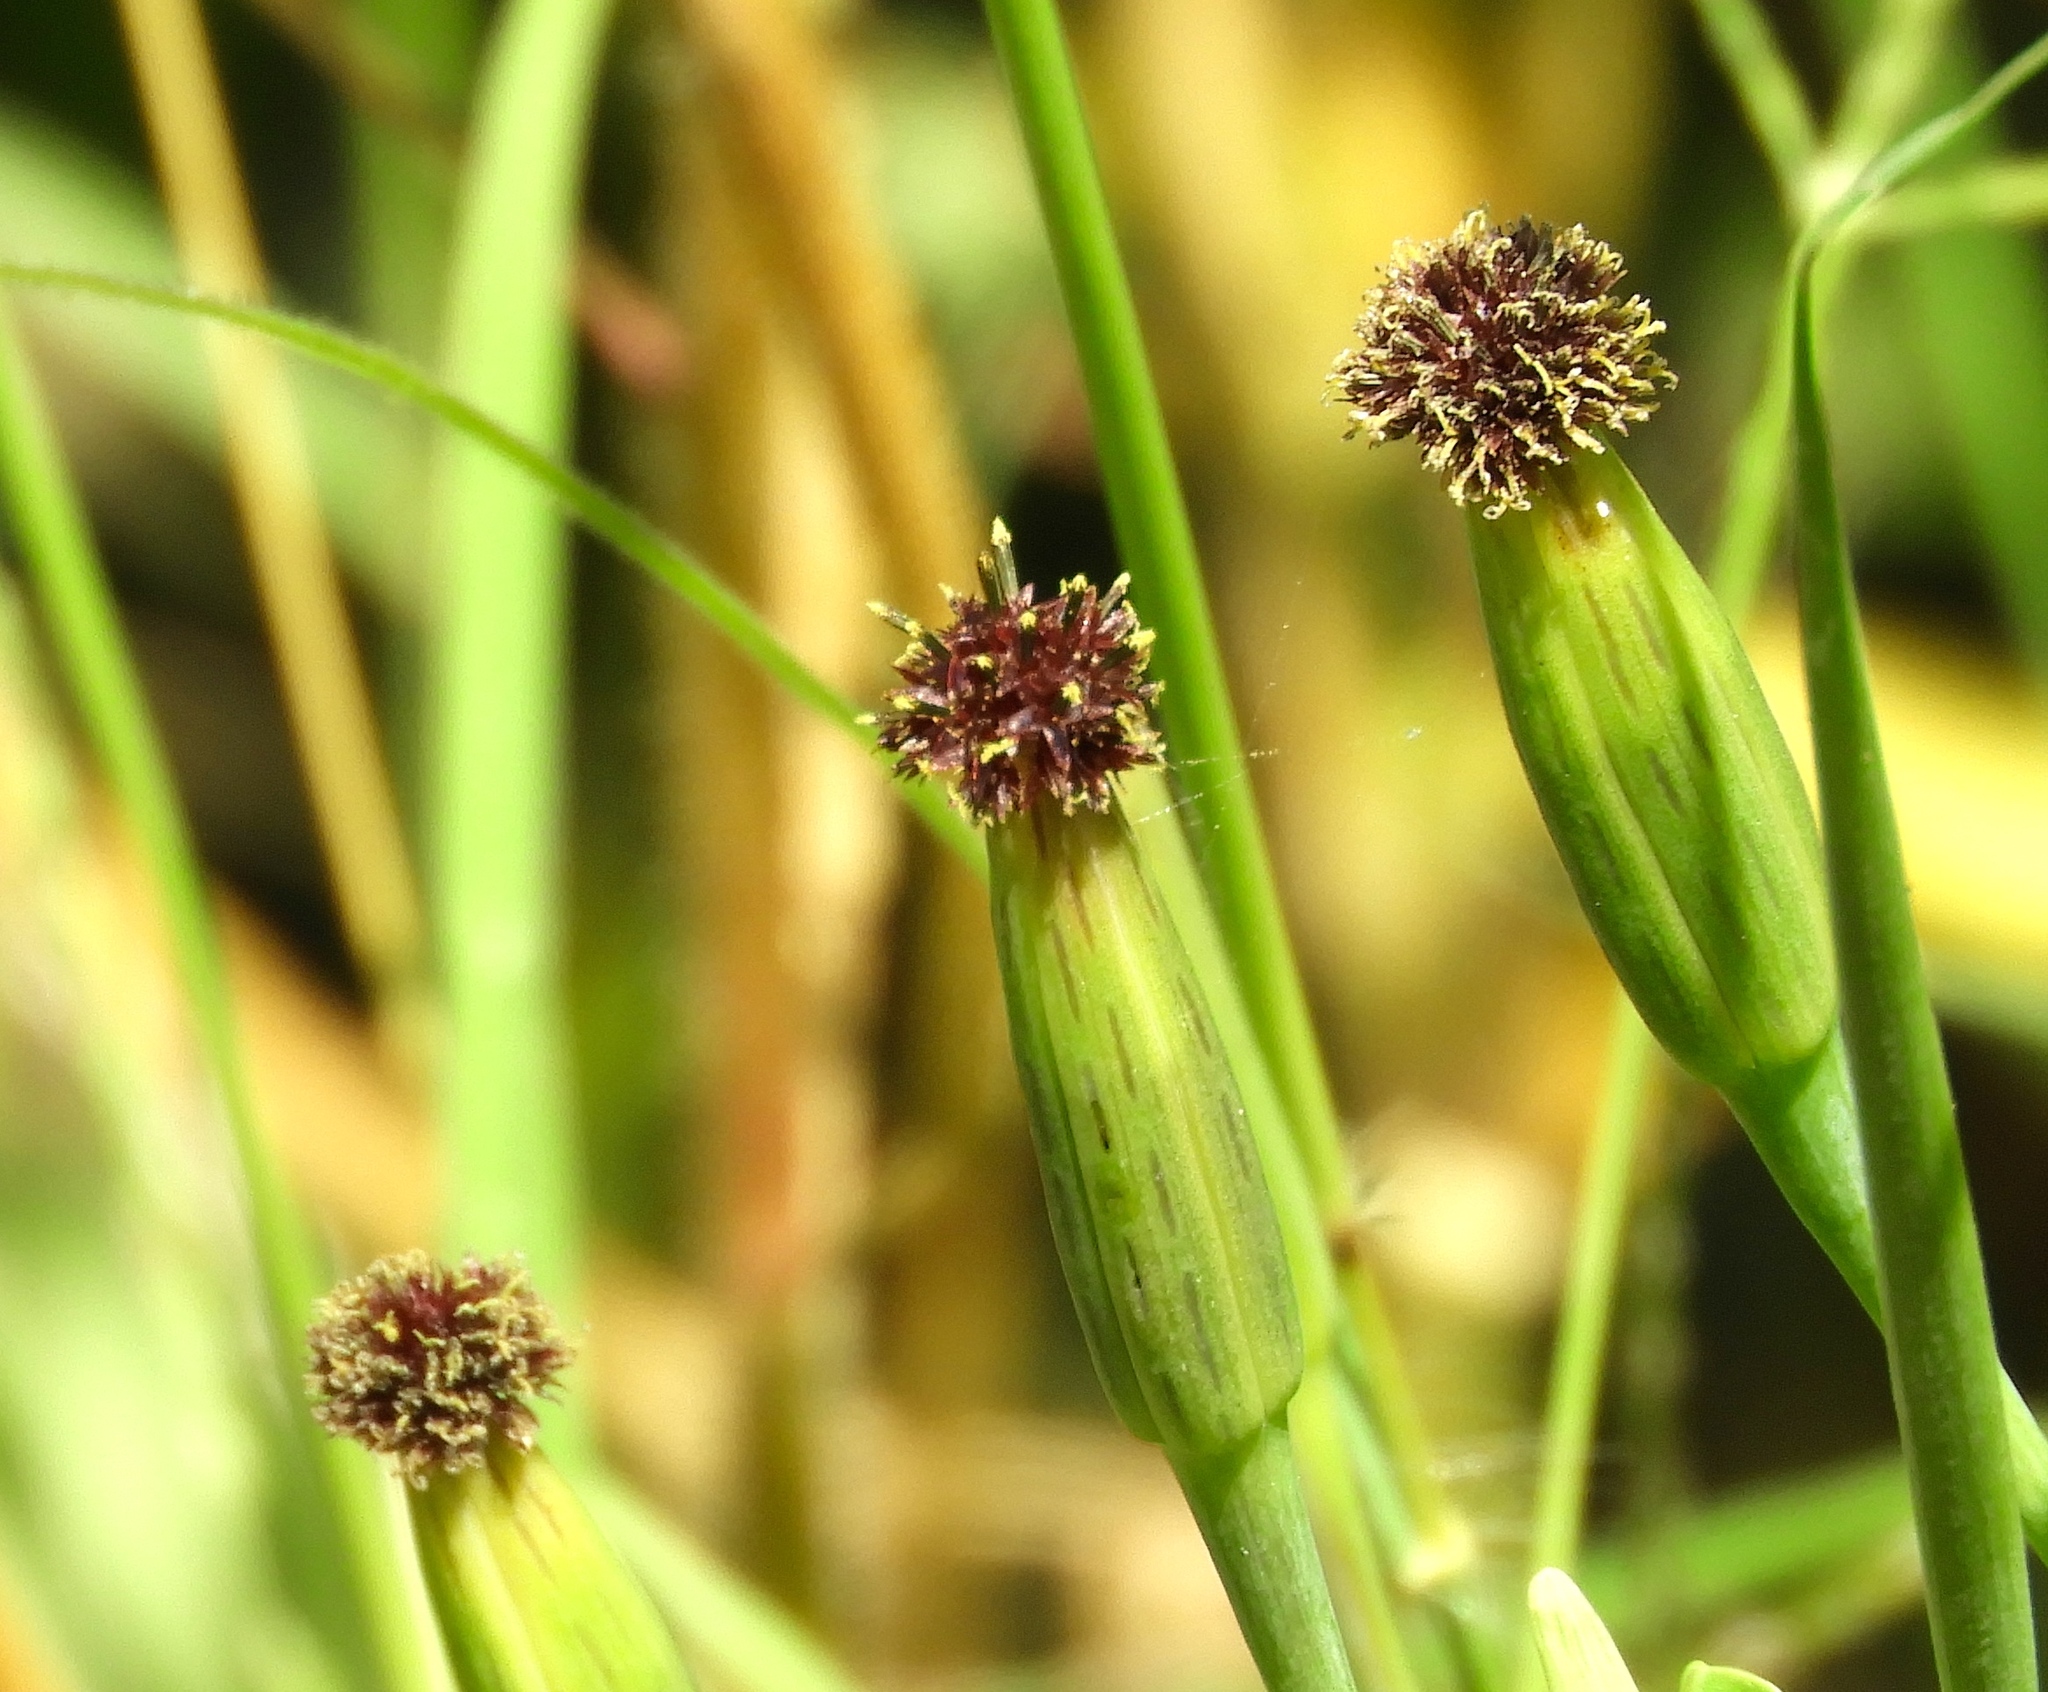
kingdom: Plantae
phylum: Tracheophyta
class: Magnoliopsida
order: Asterales
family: Asteraceae
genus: Porophyllum
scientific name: Porophyllum ruderale
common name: Yerba porosa
